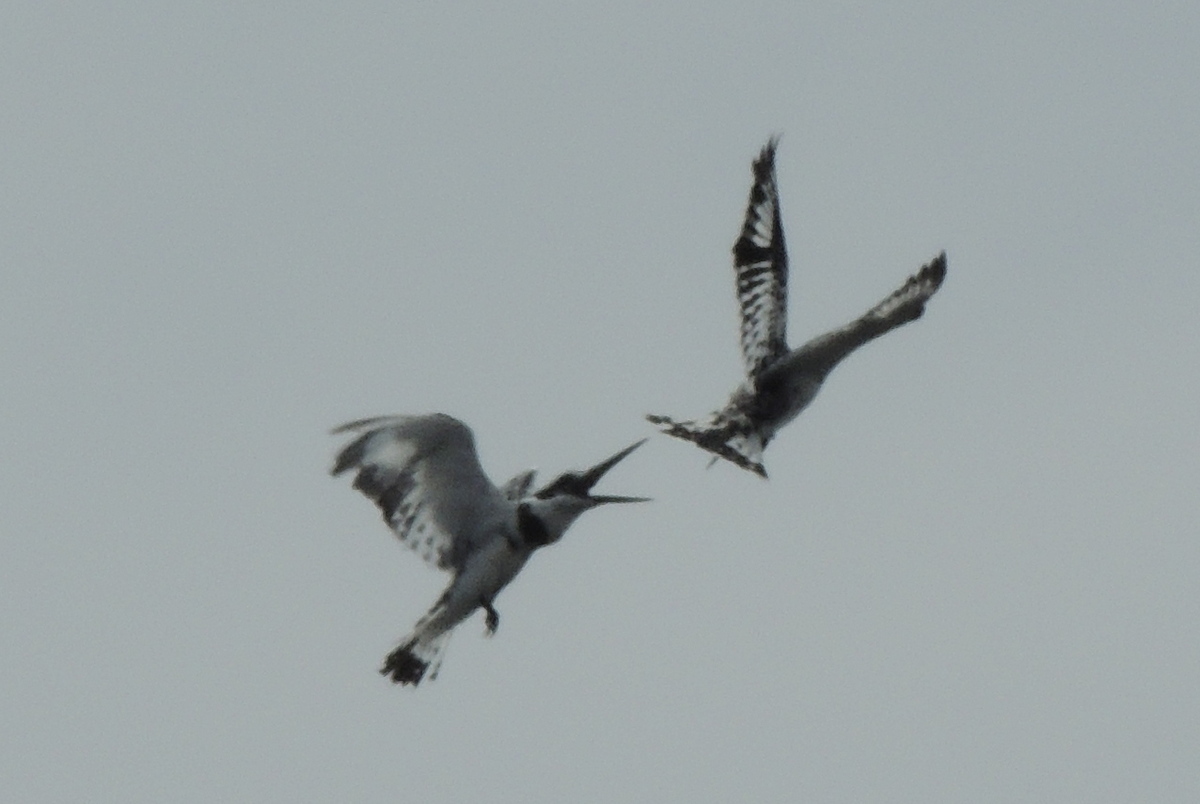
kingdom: Animalia
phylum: Chordata
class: Aves
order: Coraciiformes
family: Alcedinidae
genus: Ceryle
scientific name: Ceryle rudis
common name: Pied kingfisher
